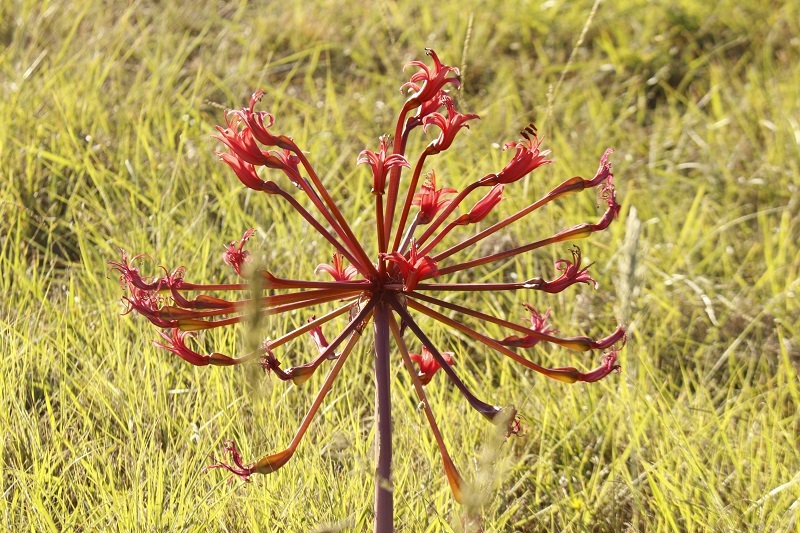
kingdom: Plantae
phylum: Tracheophyta
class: Liliopsida
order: Asparagales
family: Amaryllidaceae
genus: Brunsvigia
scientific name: Brunsvigia orientalis
